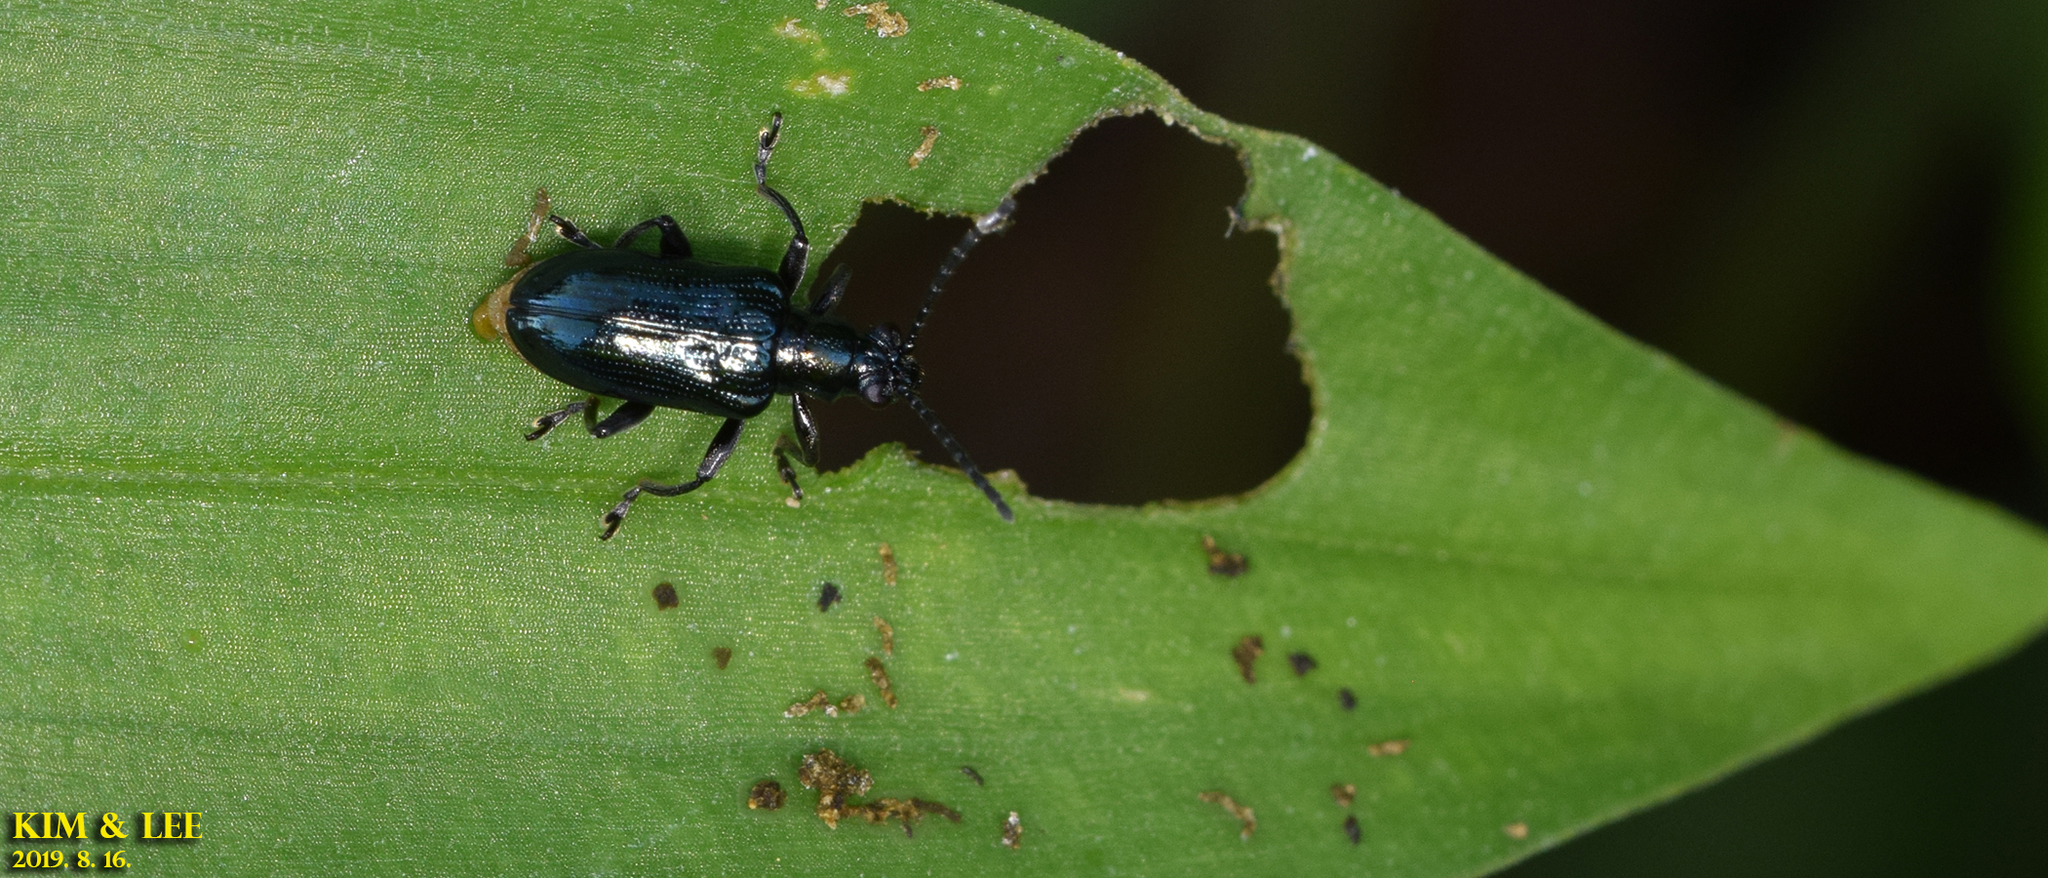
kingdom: Animalia
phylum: Arthropoda
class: Insecta
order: Coleoptera
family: Chrysomelidae
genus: Lema
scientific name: Lema concinnipennis
